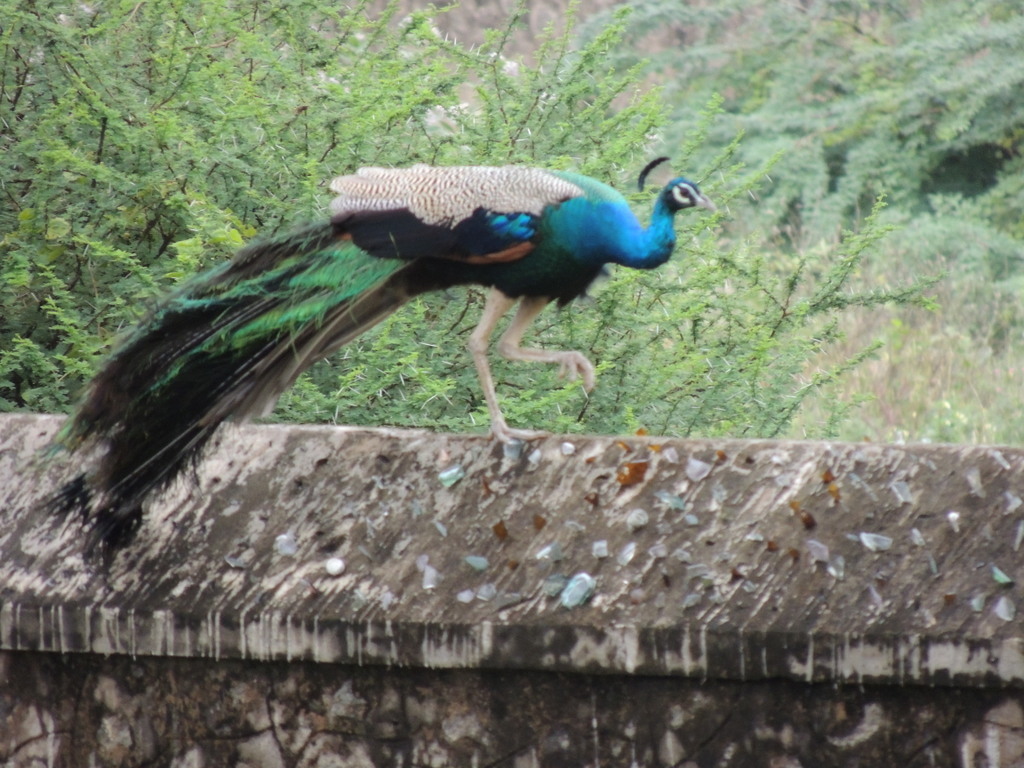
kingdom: Animalia
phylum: Chordata
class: Aves
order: Galliformes
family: Phasianidae
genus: Pavo
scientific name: Pavo cristatus
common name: Indian peafowl
